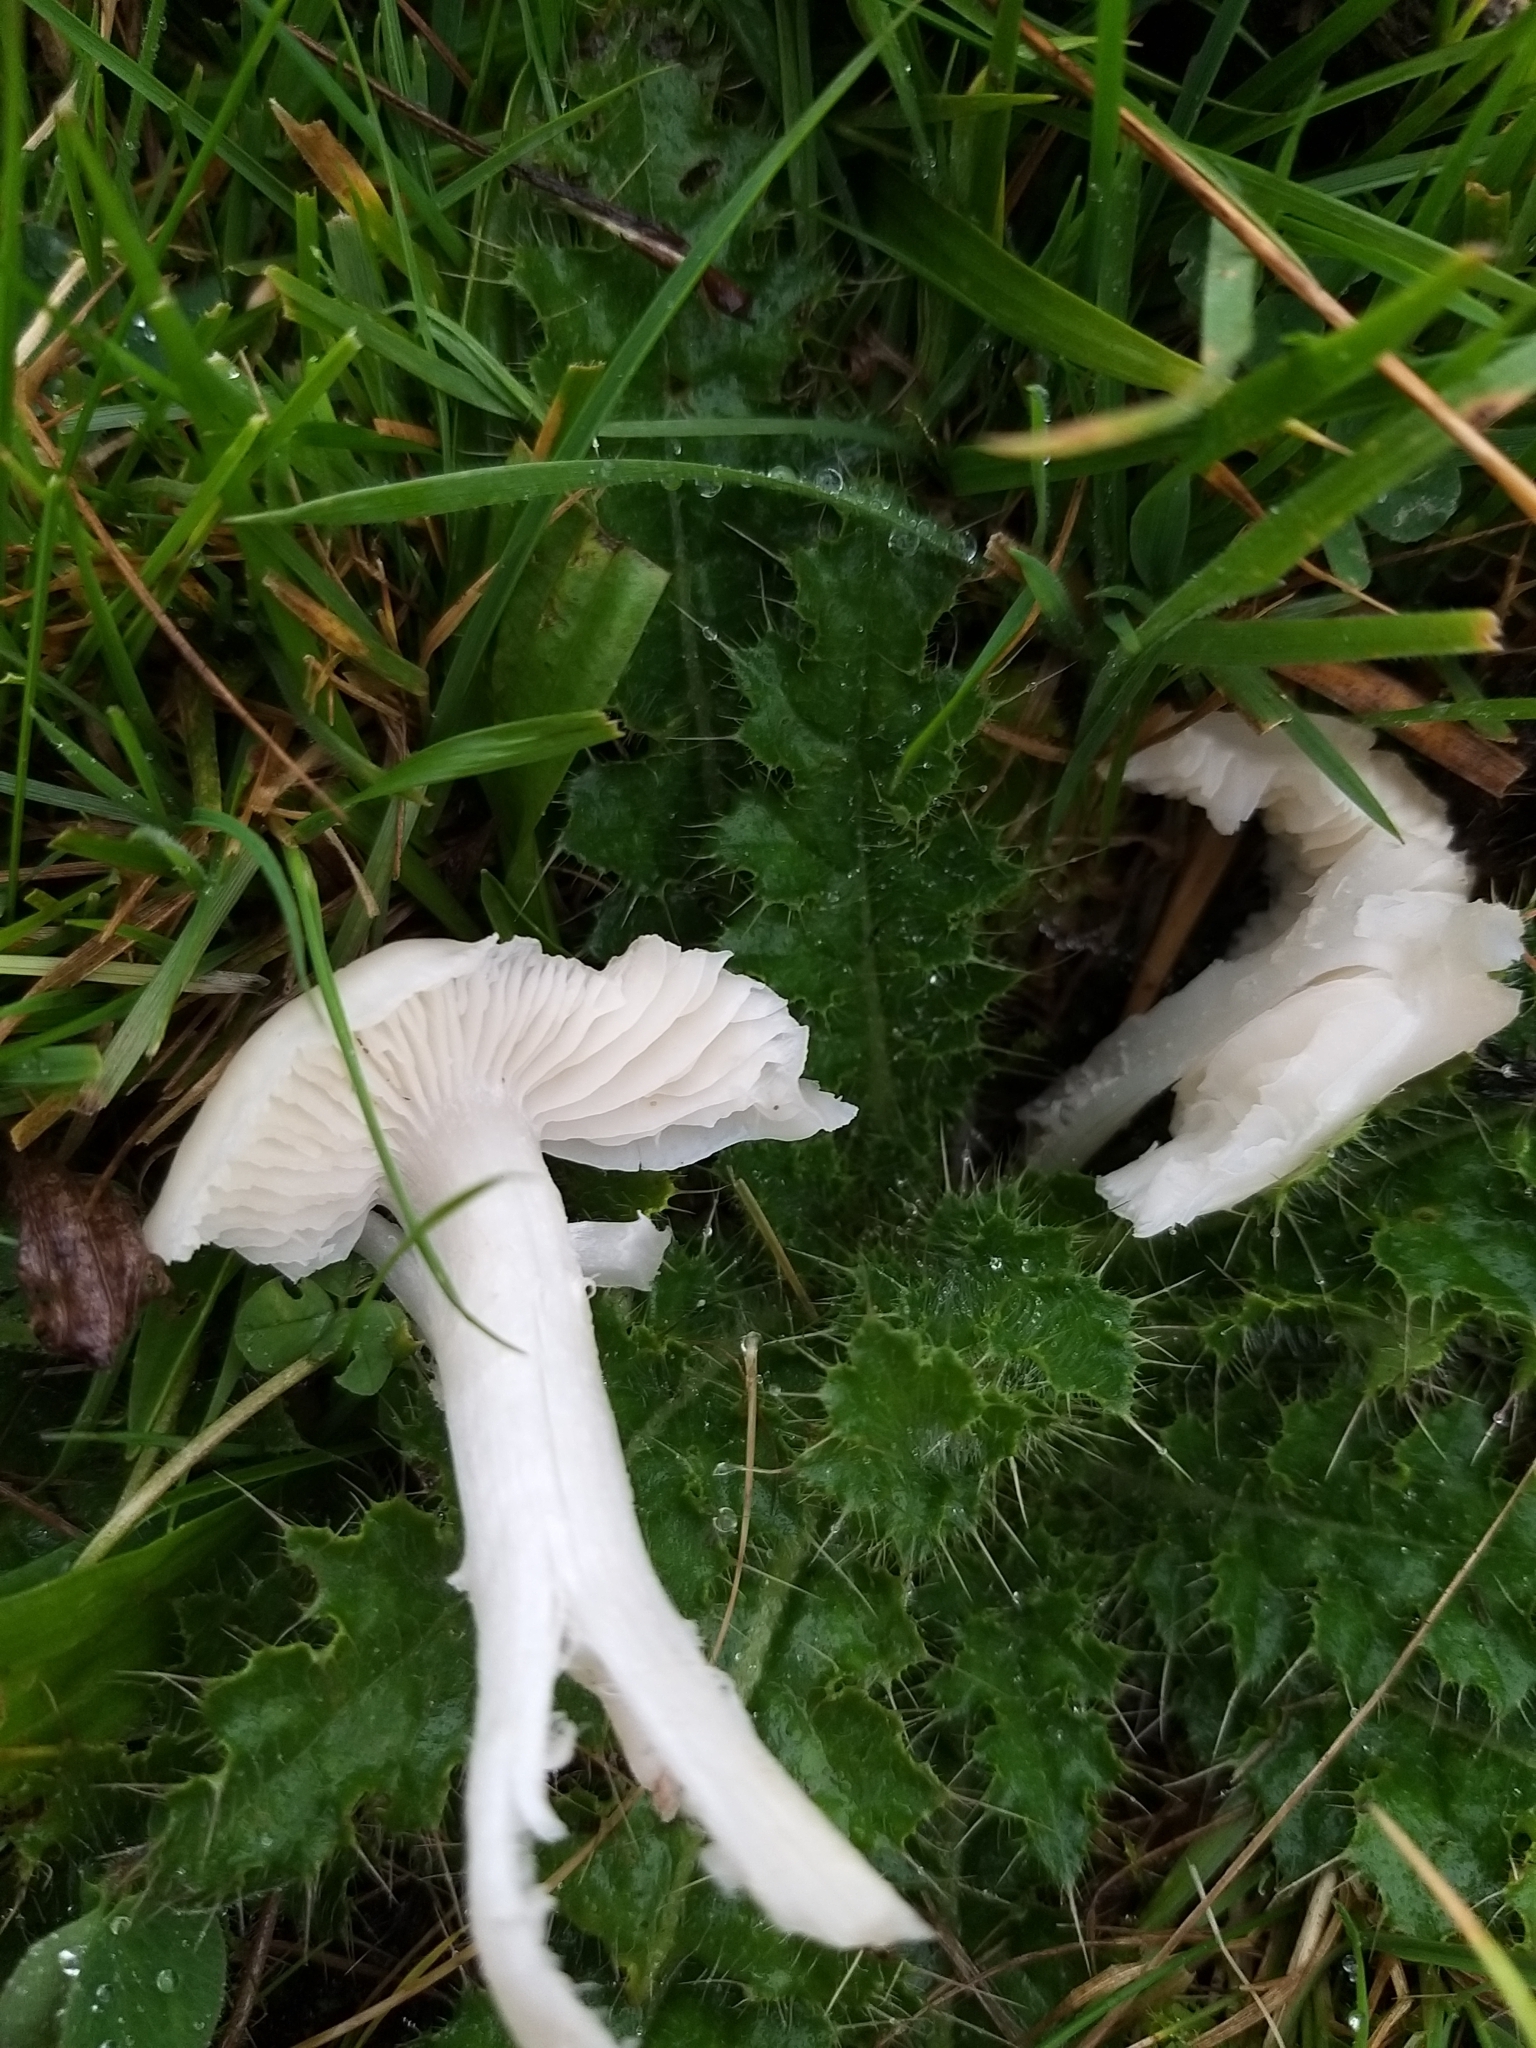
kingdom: Fungi
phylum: Basidiomycota
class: Agaricomycetes
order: Agaricales
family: Hygrophoraceae
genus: Cuphophyllus
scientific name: Cuphophyllus fornicatus
